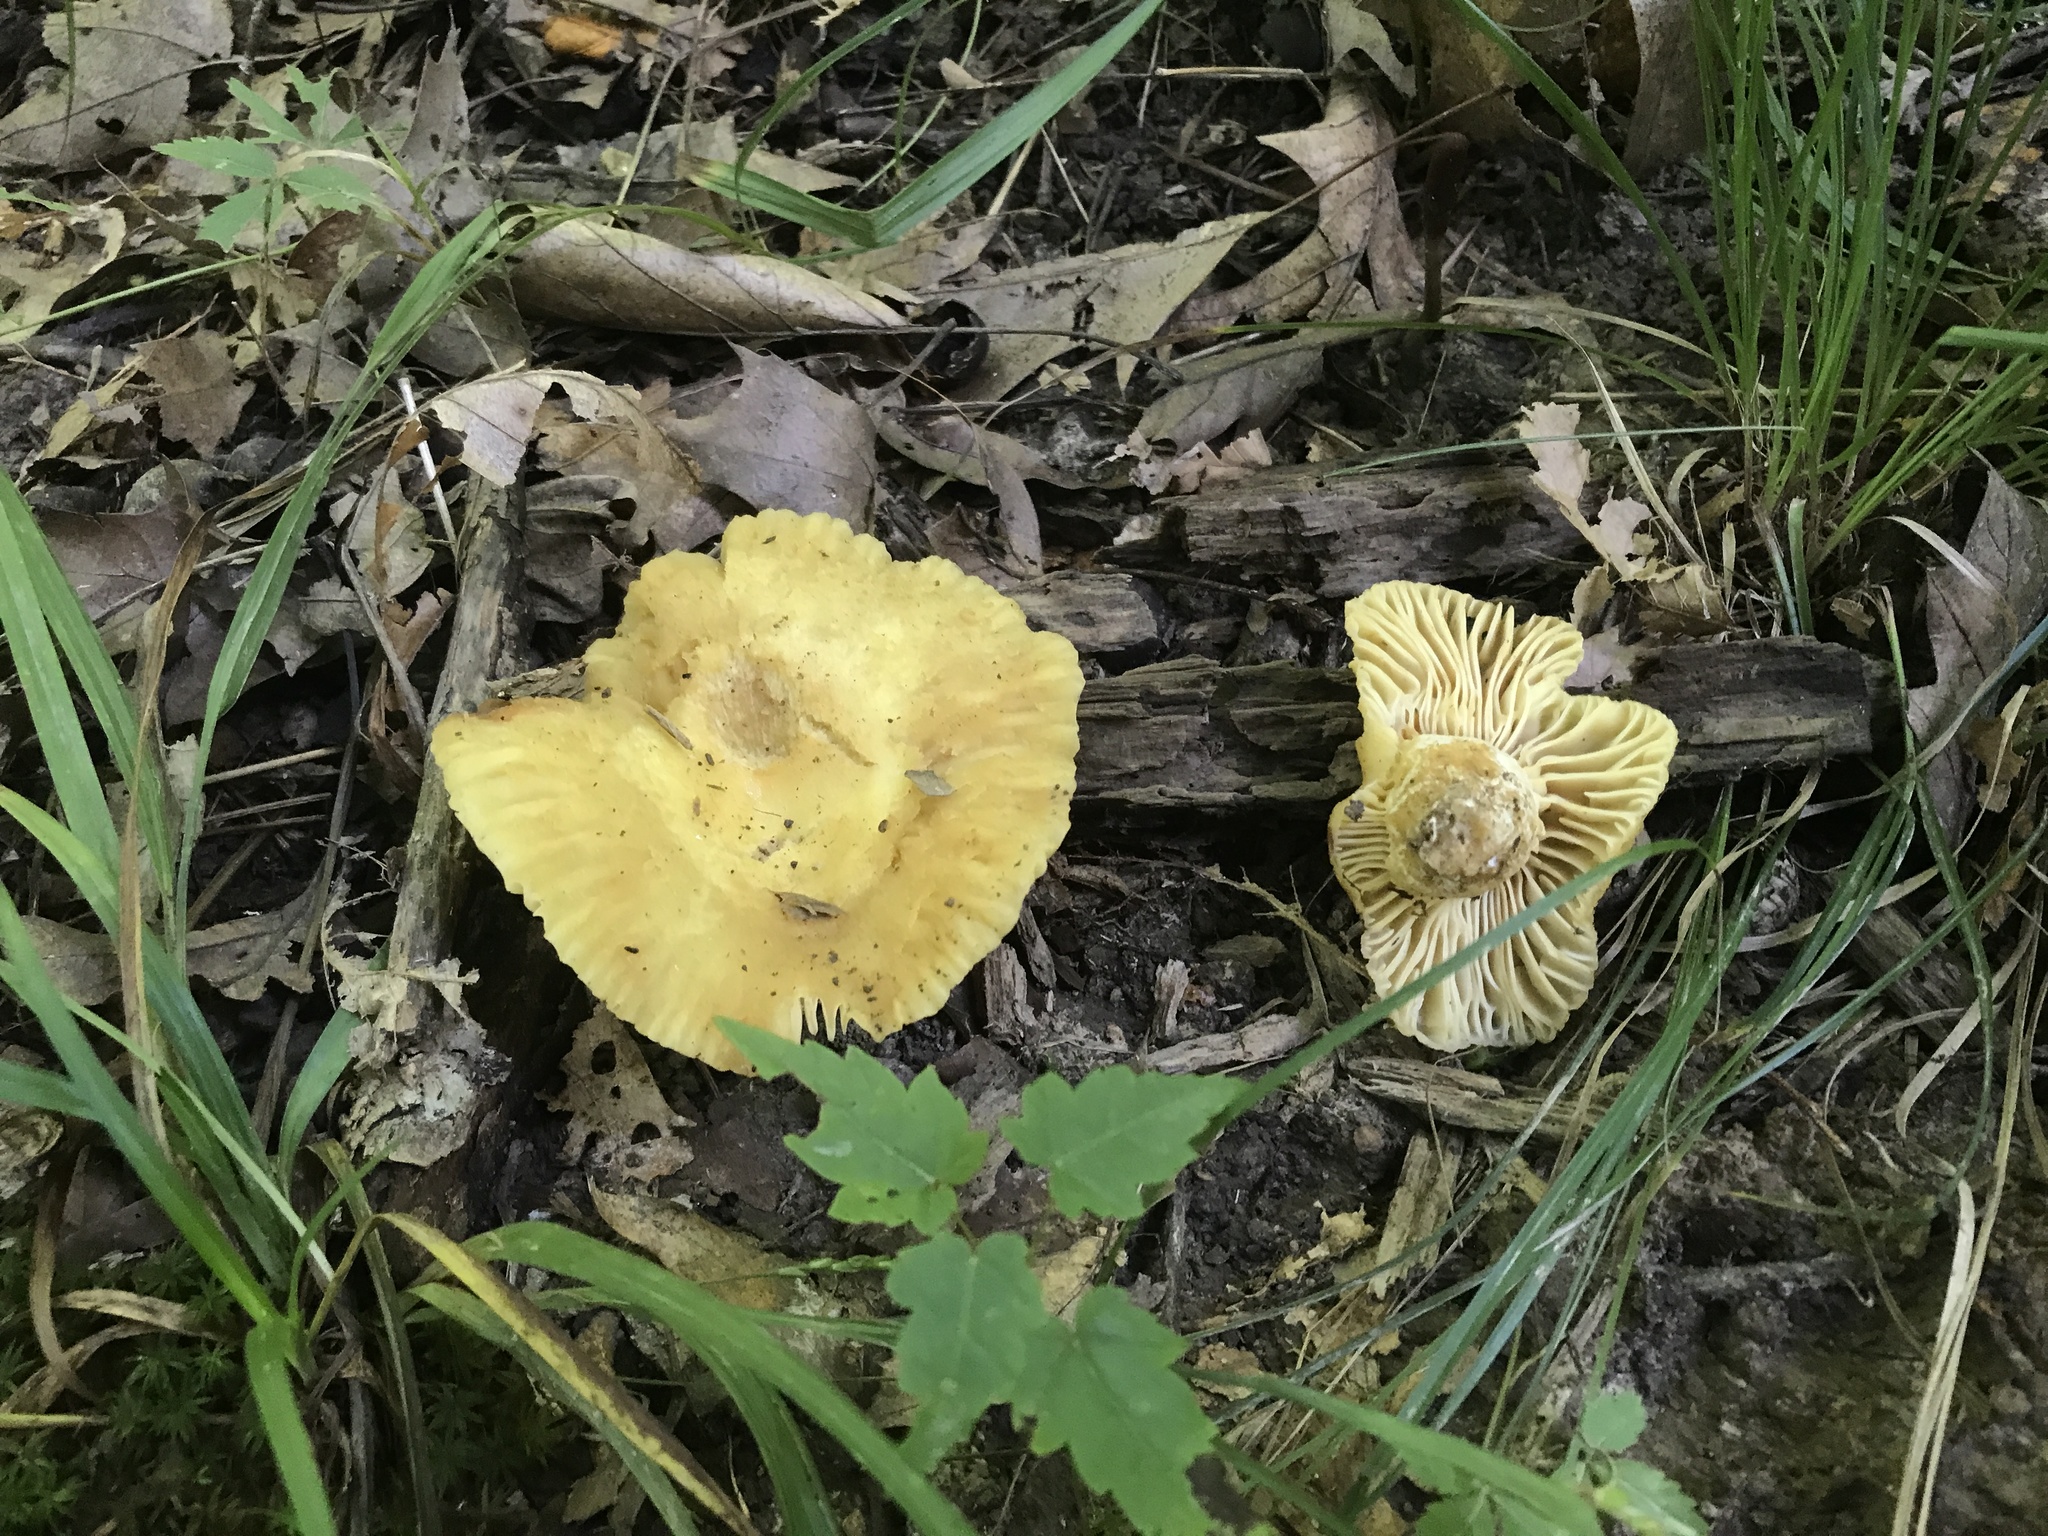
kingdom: Fungi
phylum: Basidiomycota
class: Agaricomycetes
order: Russulales
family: Russulaceae
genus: Russula
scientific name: Russula earlei
